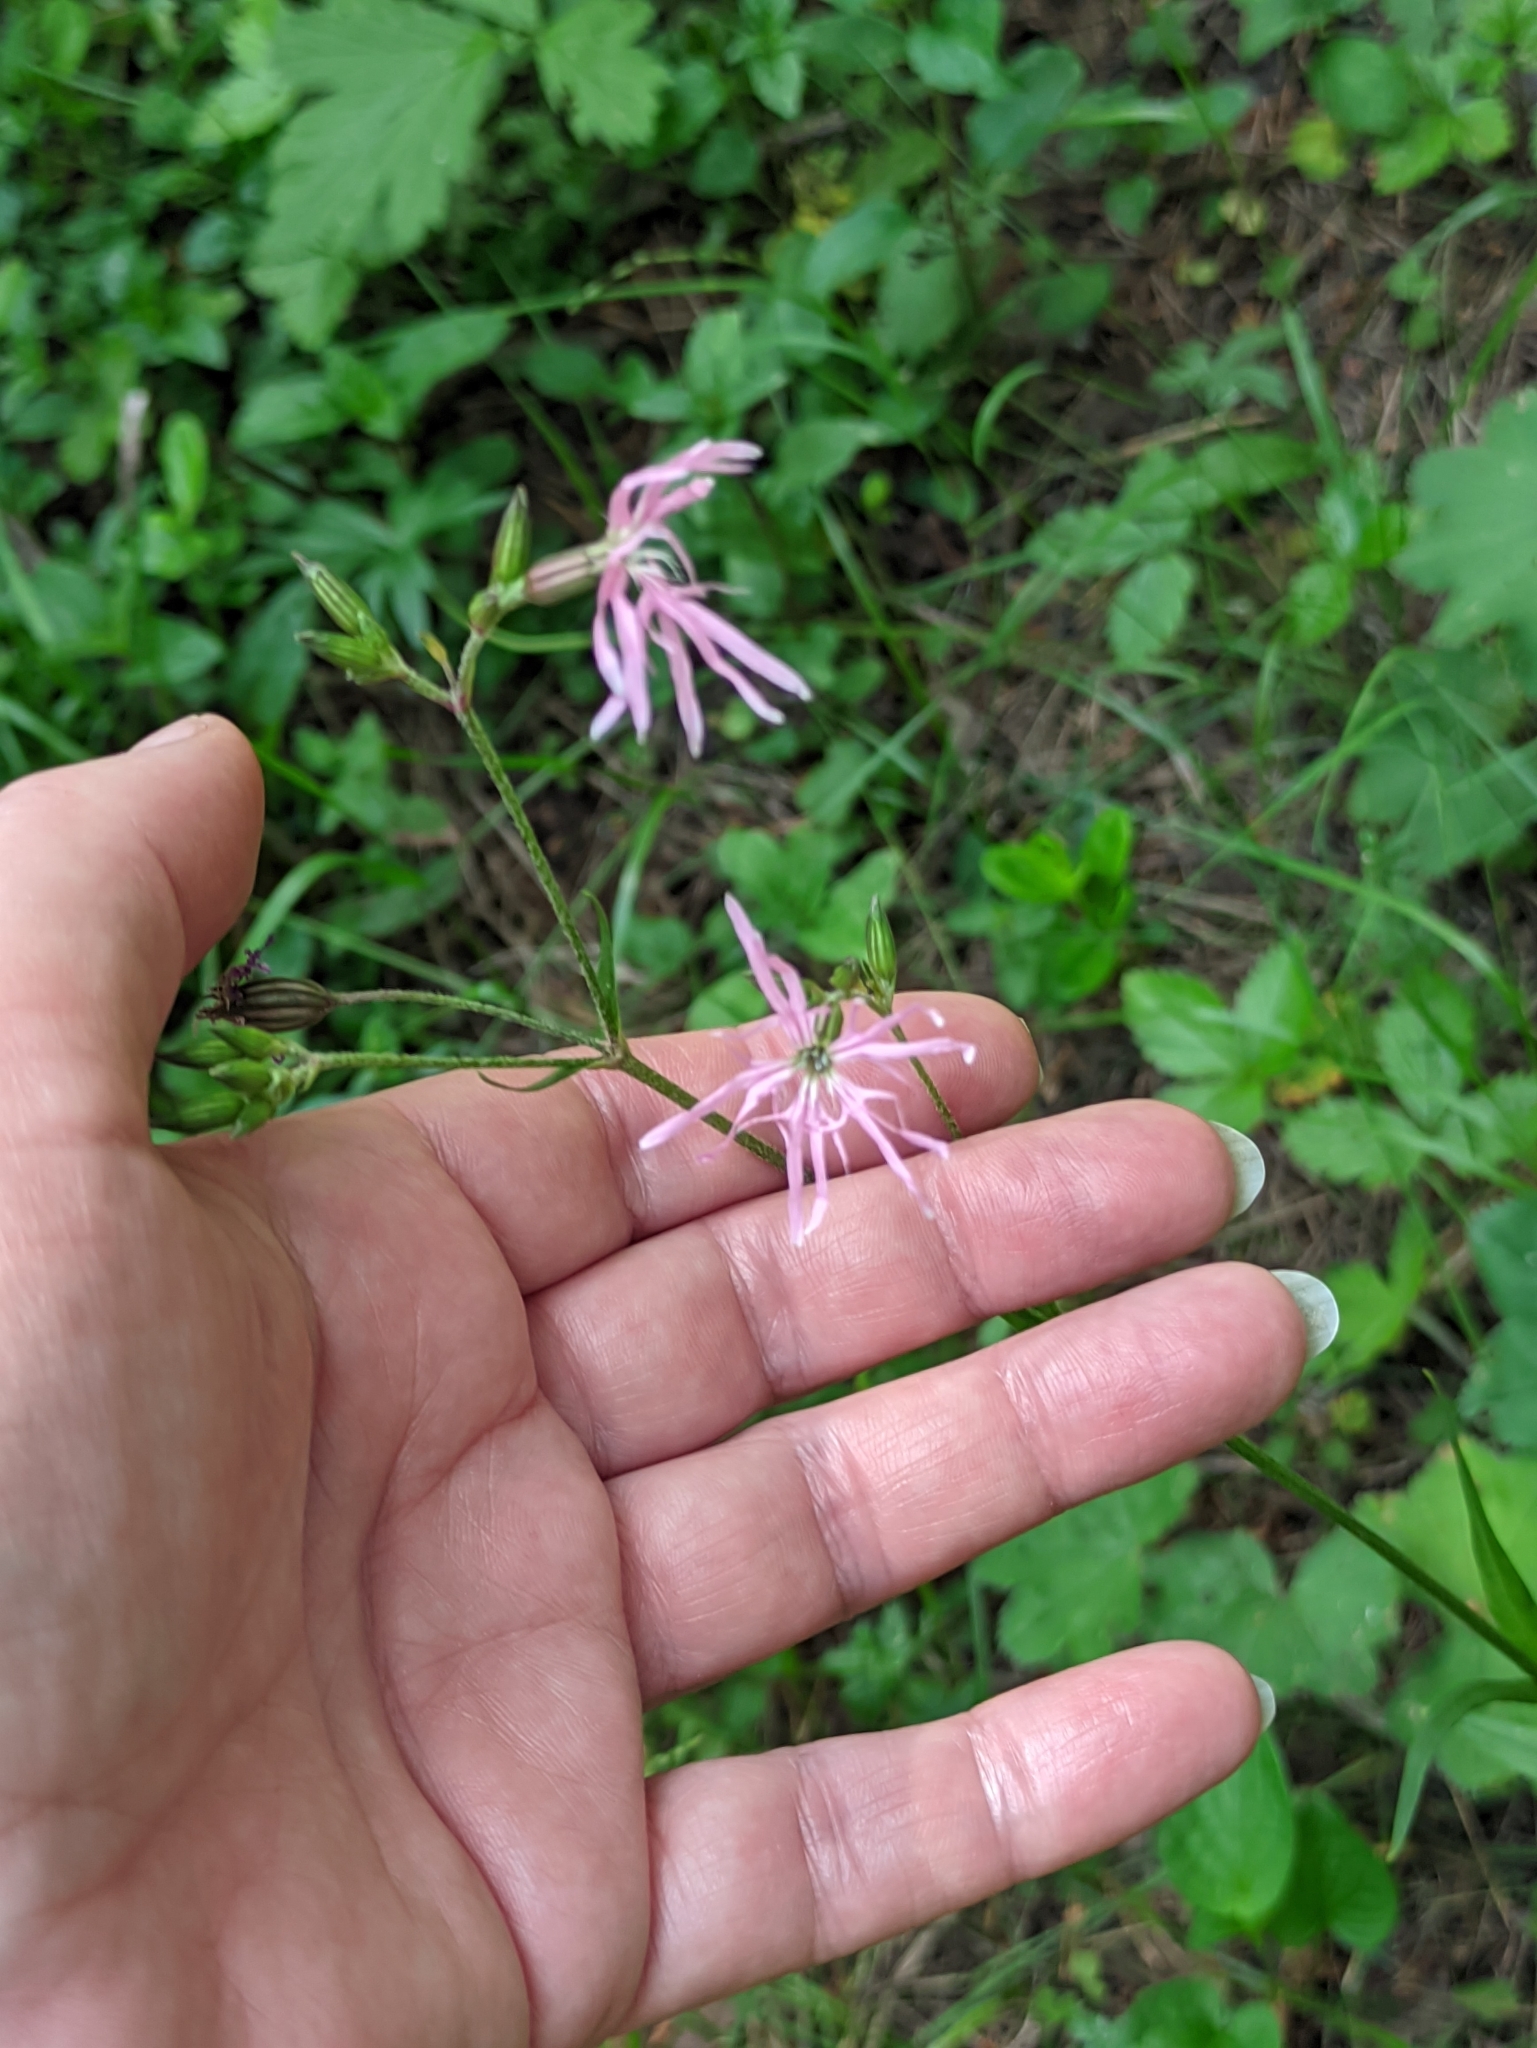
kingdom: Plantae
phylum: Tracheophyta
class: Magnoliopsida
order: Caryophyllales
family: Caryophyllaceae
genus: Silene
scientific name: Silene flos-cuculi
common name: Ragged-robin
